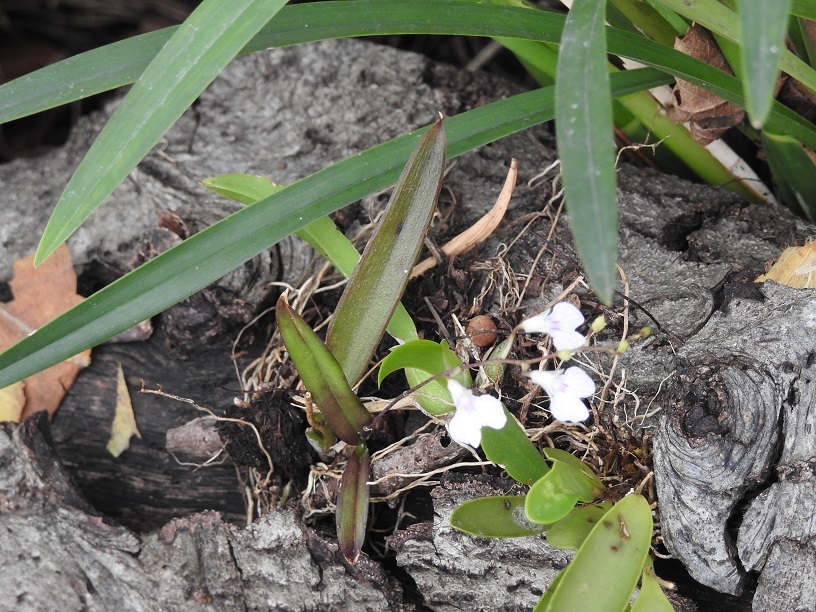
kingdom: Plantae
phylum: Tracheophyta
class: Liliopsida
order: Asparagales
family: Orchidaceae
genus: Ionopsis
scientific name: Ionopsis utricularioides
